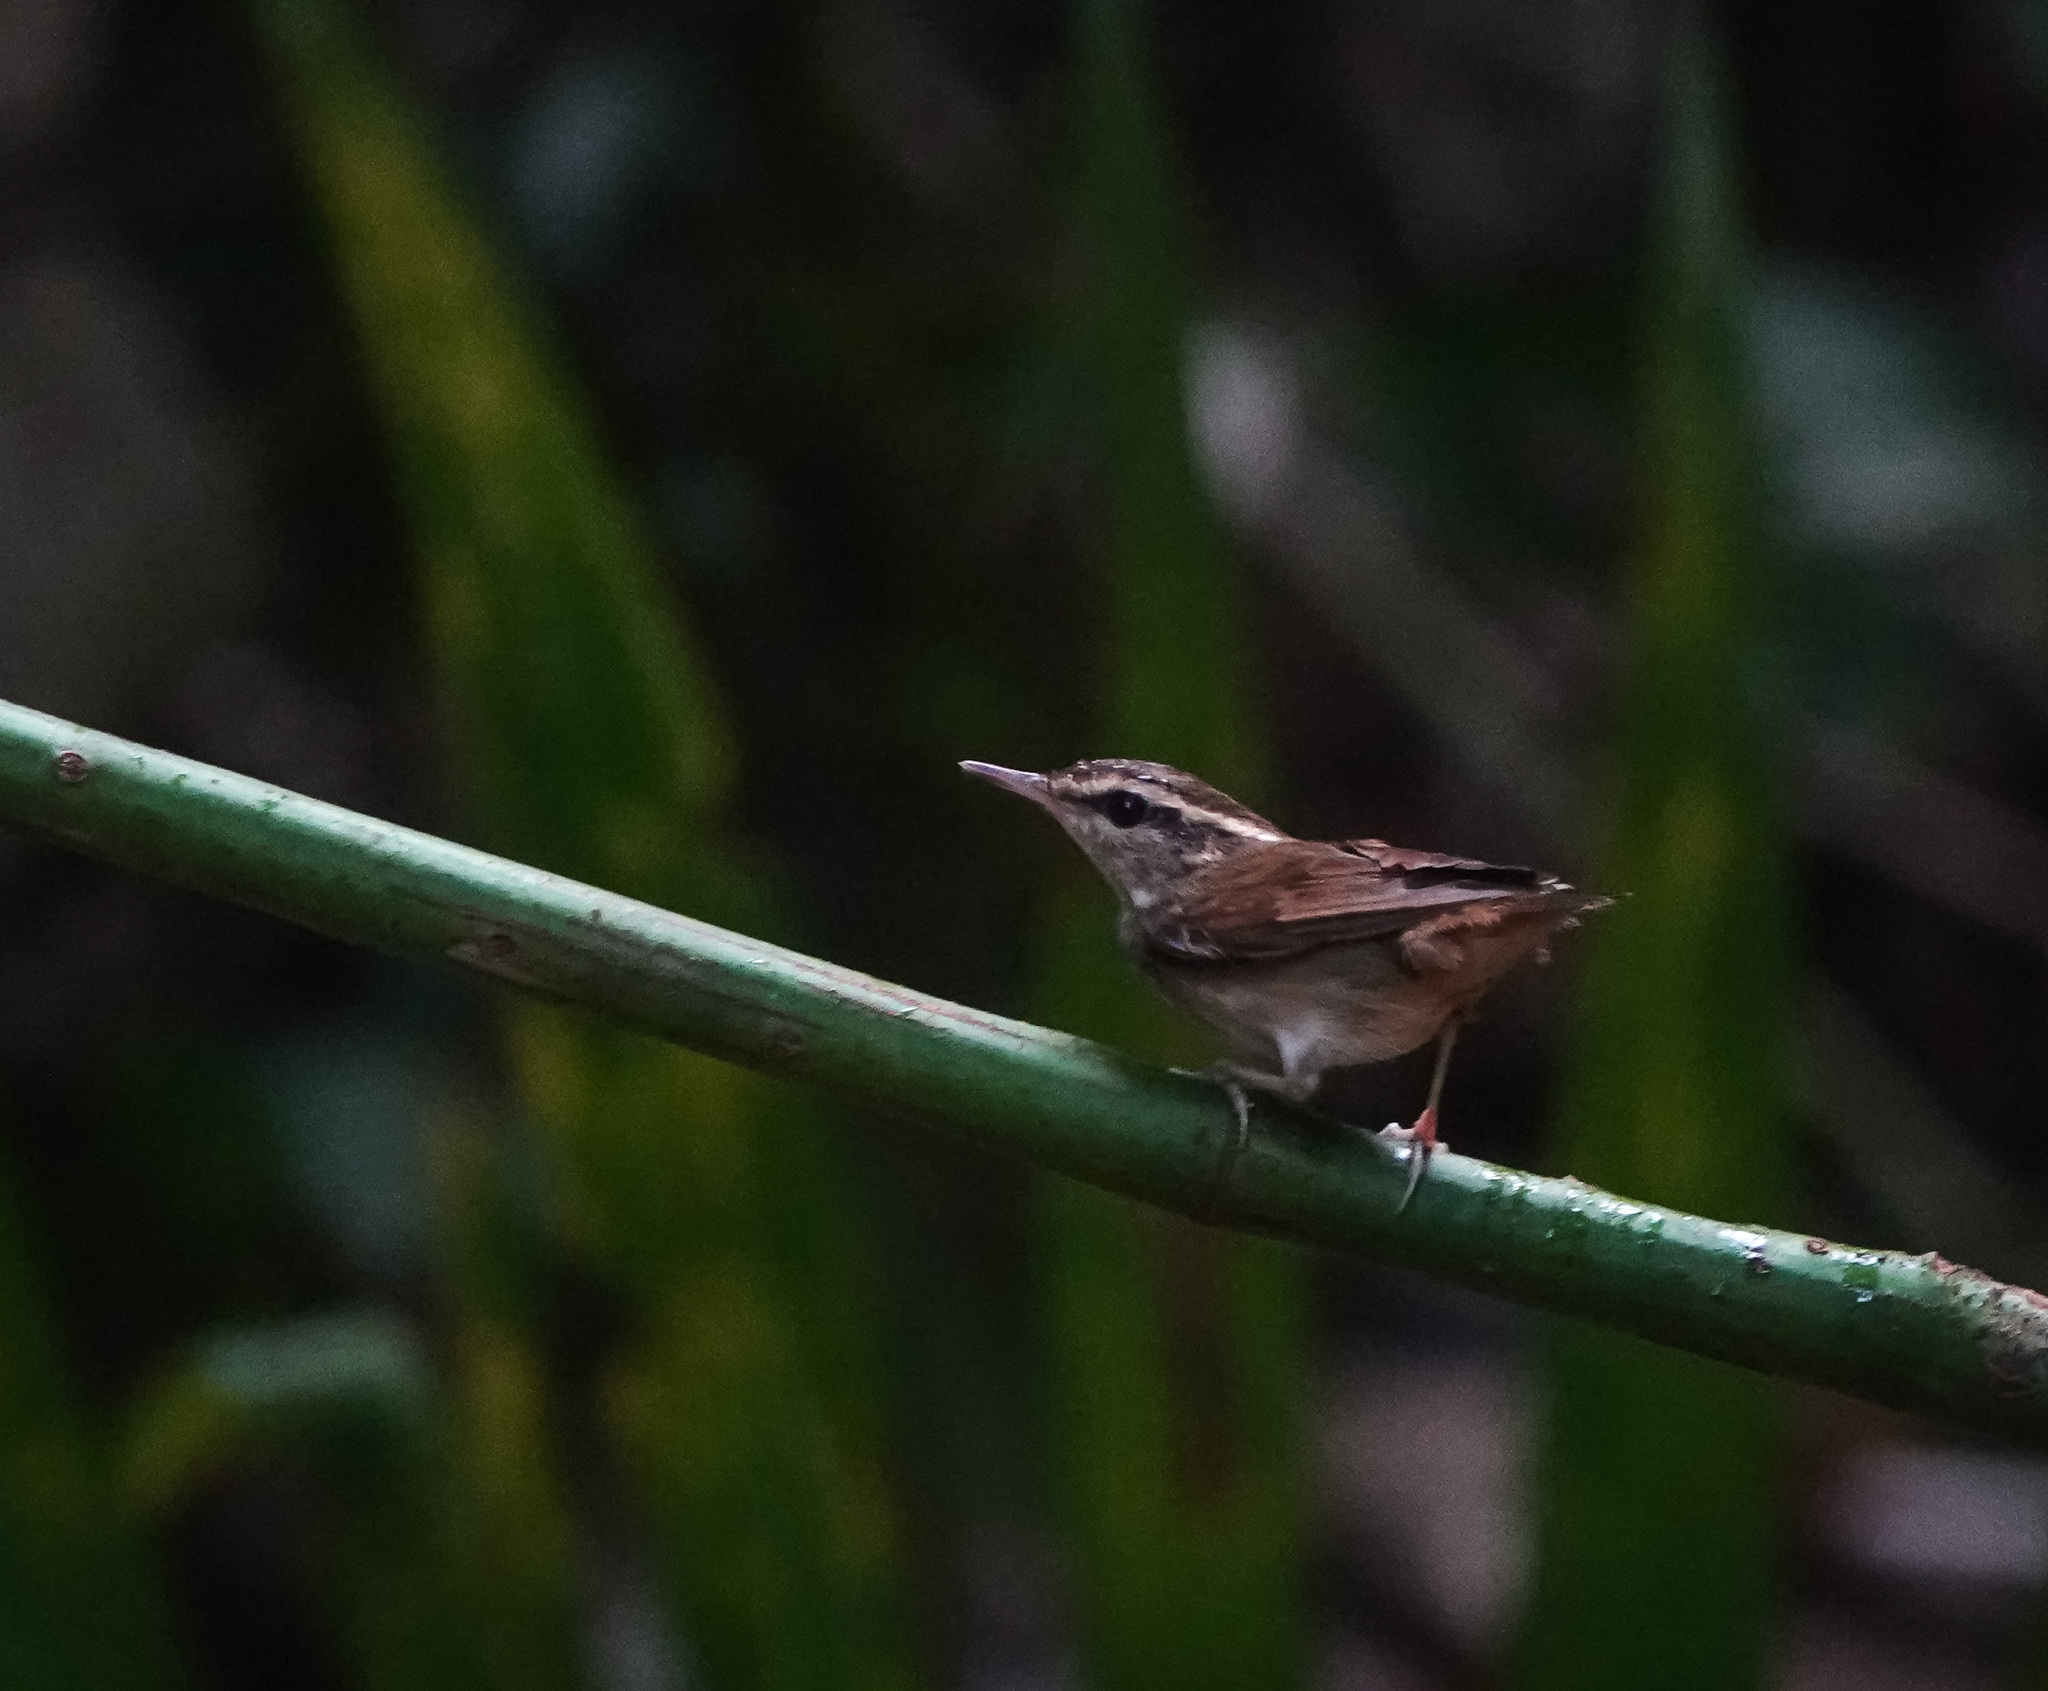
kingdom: Animalia
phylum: Chordata
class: Aves
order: Passeriformes
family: Cettiidae
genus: Urosphena
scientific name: Urosphena squameiceps
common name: Asian stubtail
